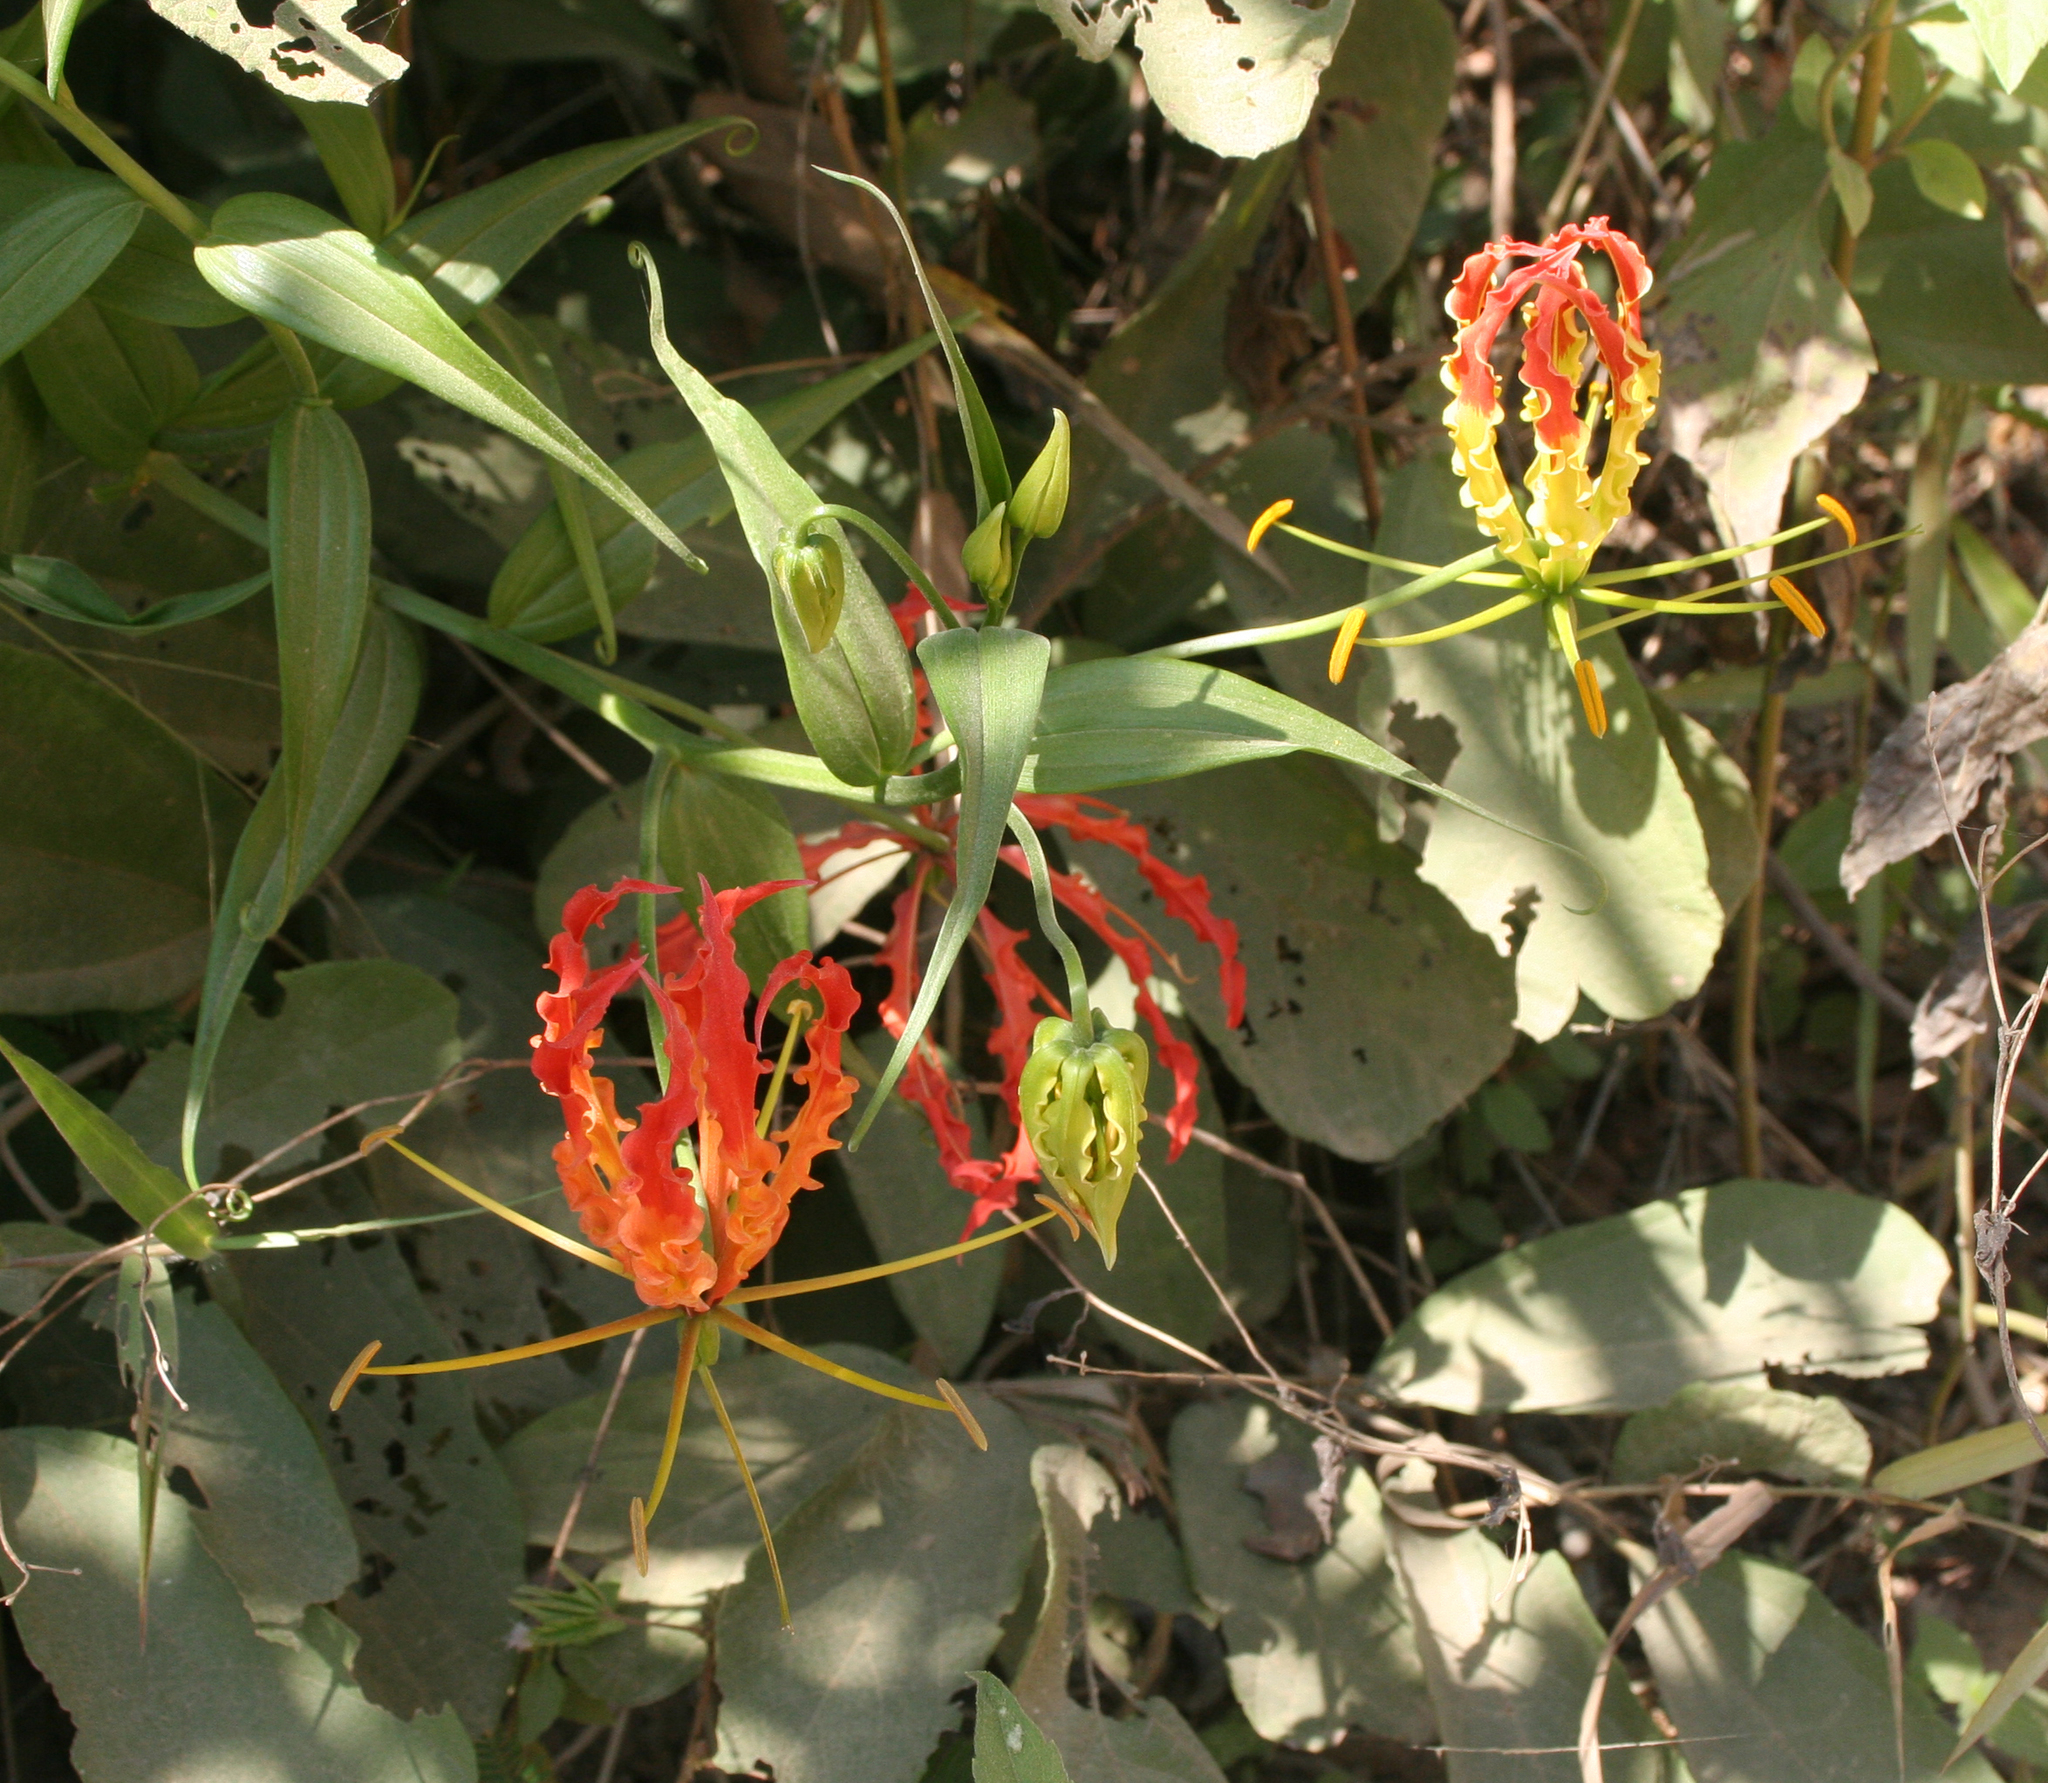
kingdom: Plantae
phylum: Tracheophyta
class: Liliopsida
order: Liliales
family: Colchicaceae
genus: Gloriosa
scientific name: Gloriosa superba
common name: Flame lily
